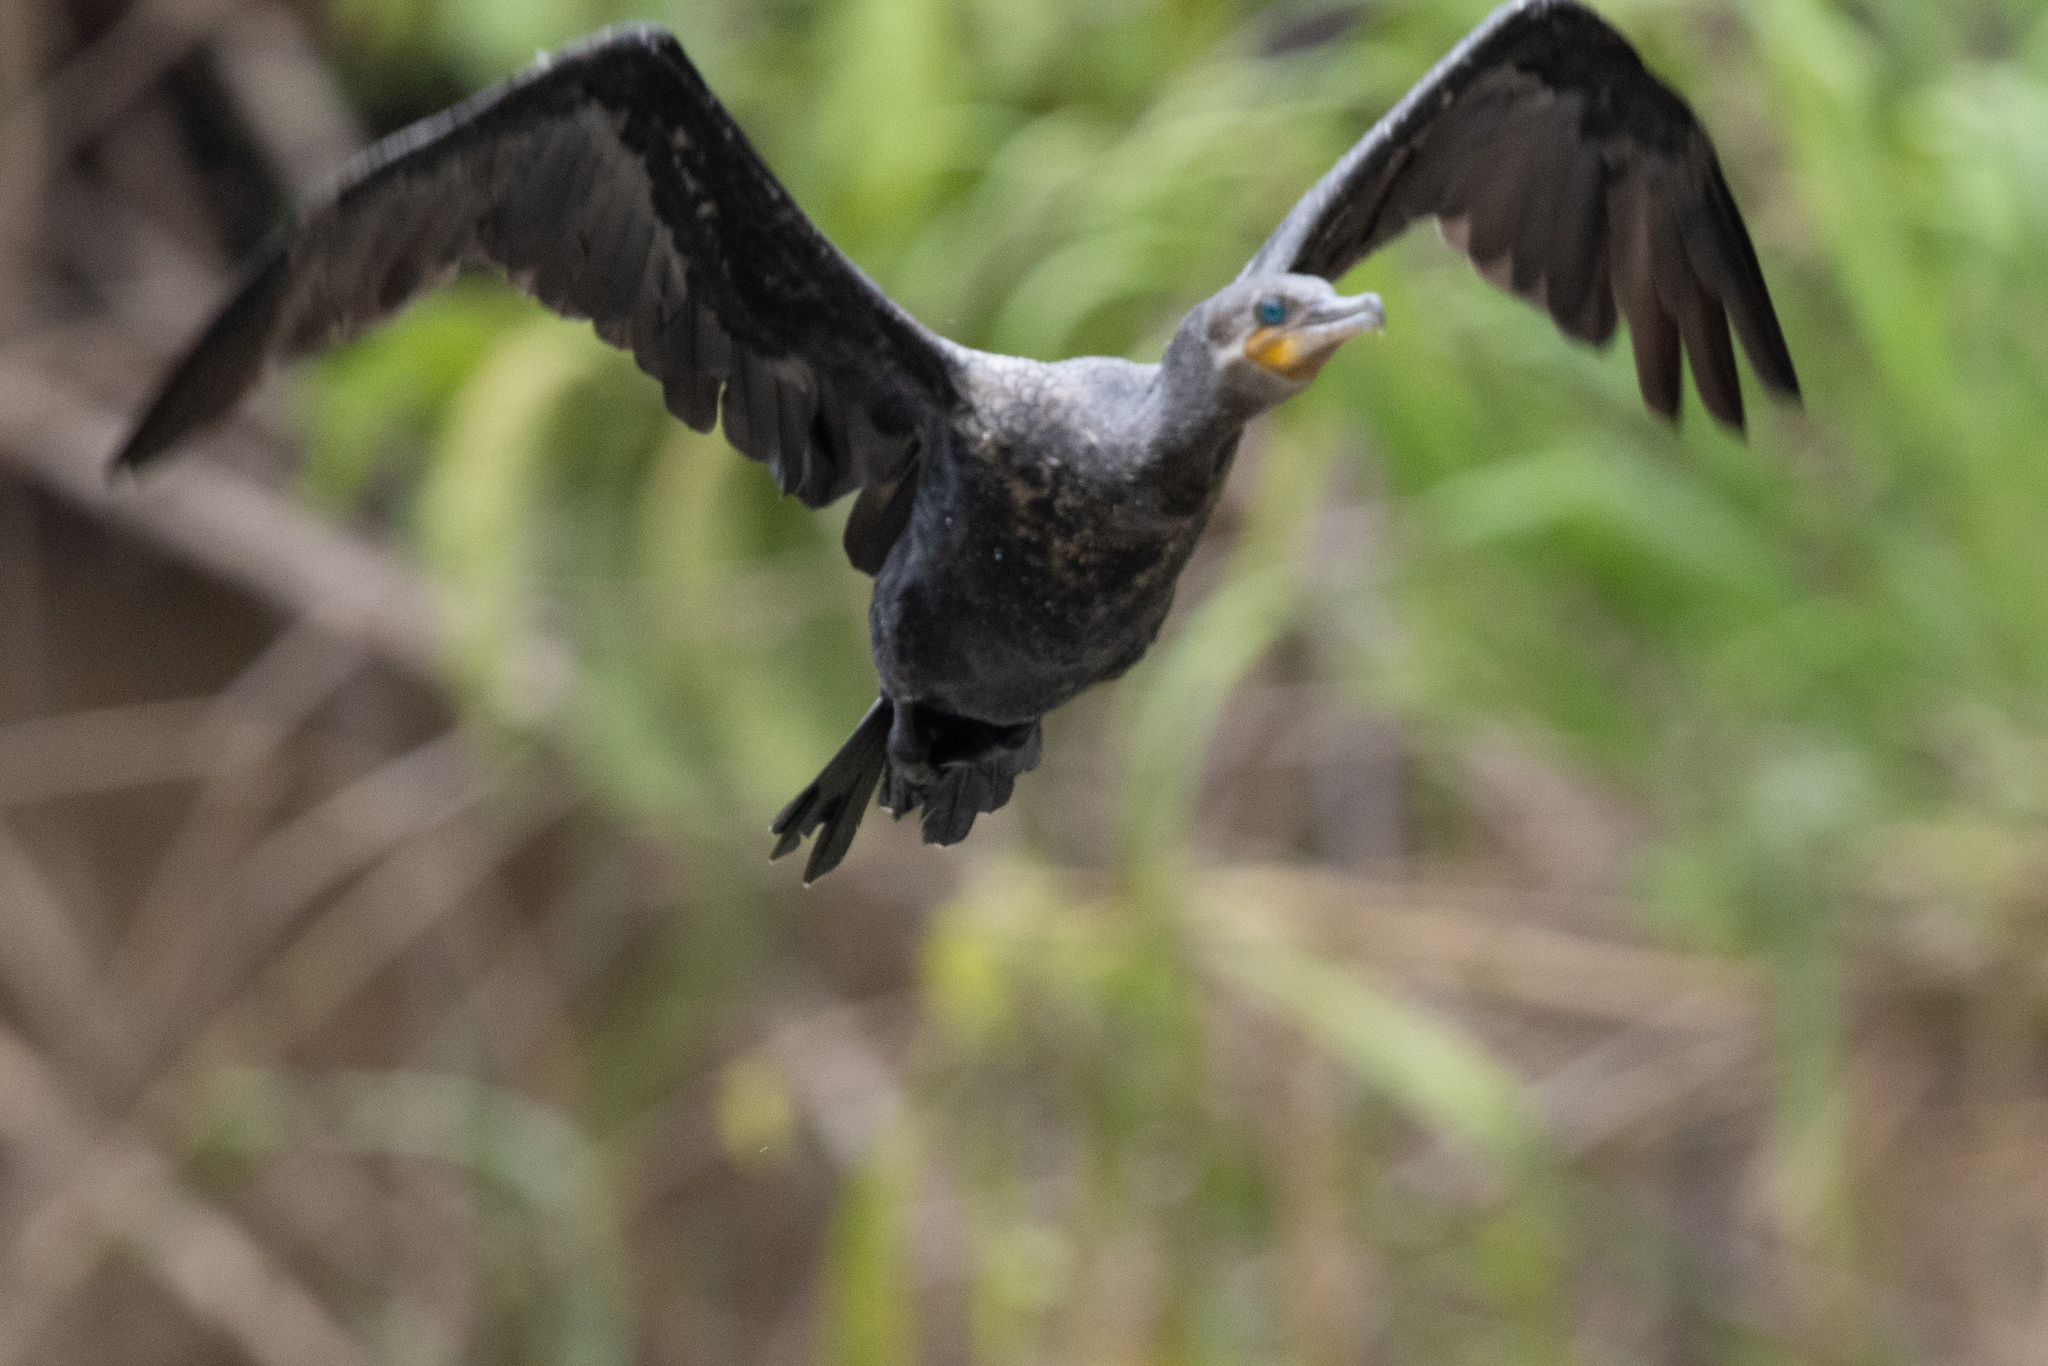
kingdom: Animalia
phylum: Chordata
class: Aves
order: Suliformes
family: Phalacrocoracidae
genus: Phalacrocorax
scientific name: Phalacrocorax brasilianus
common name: Neotropic cormorant
